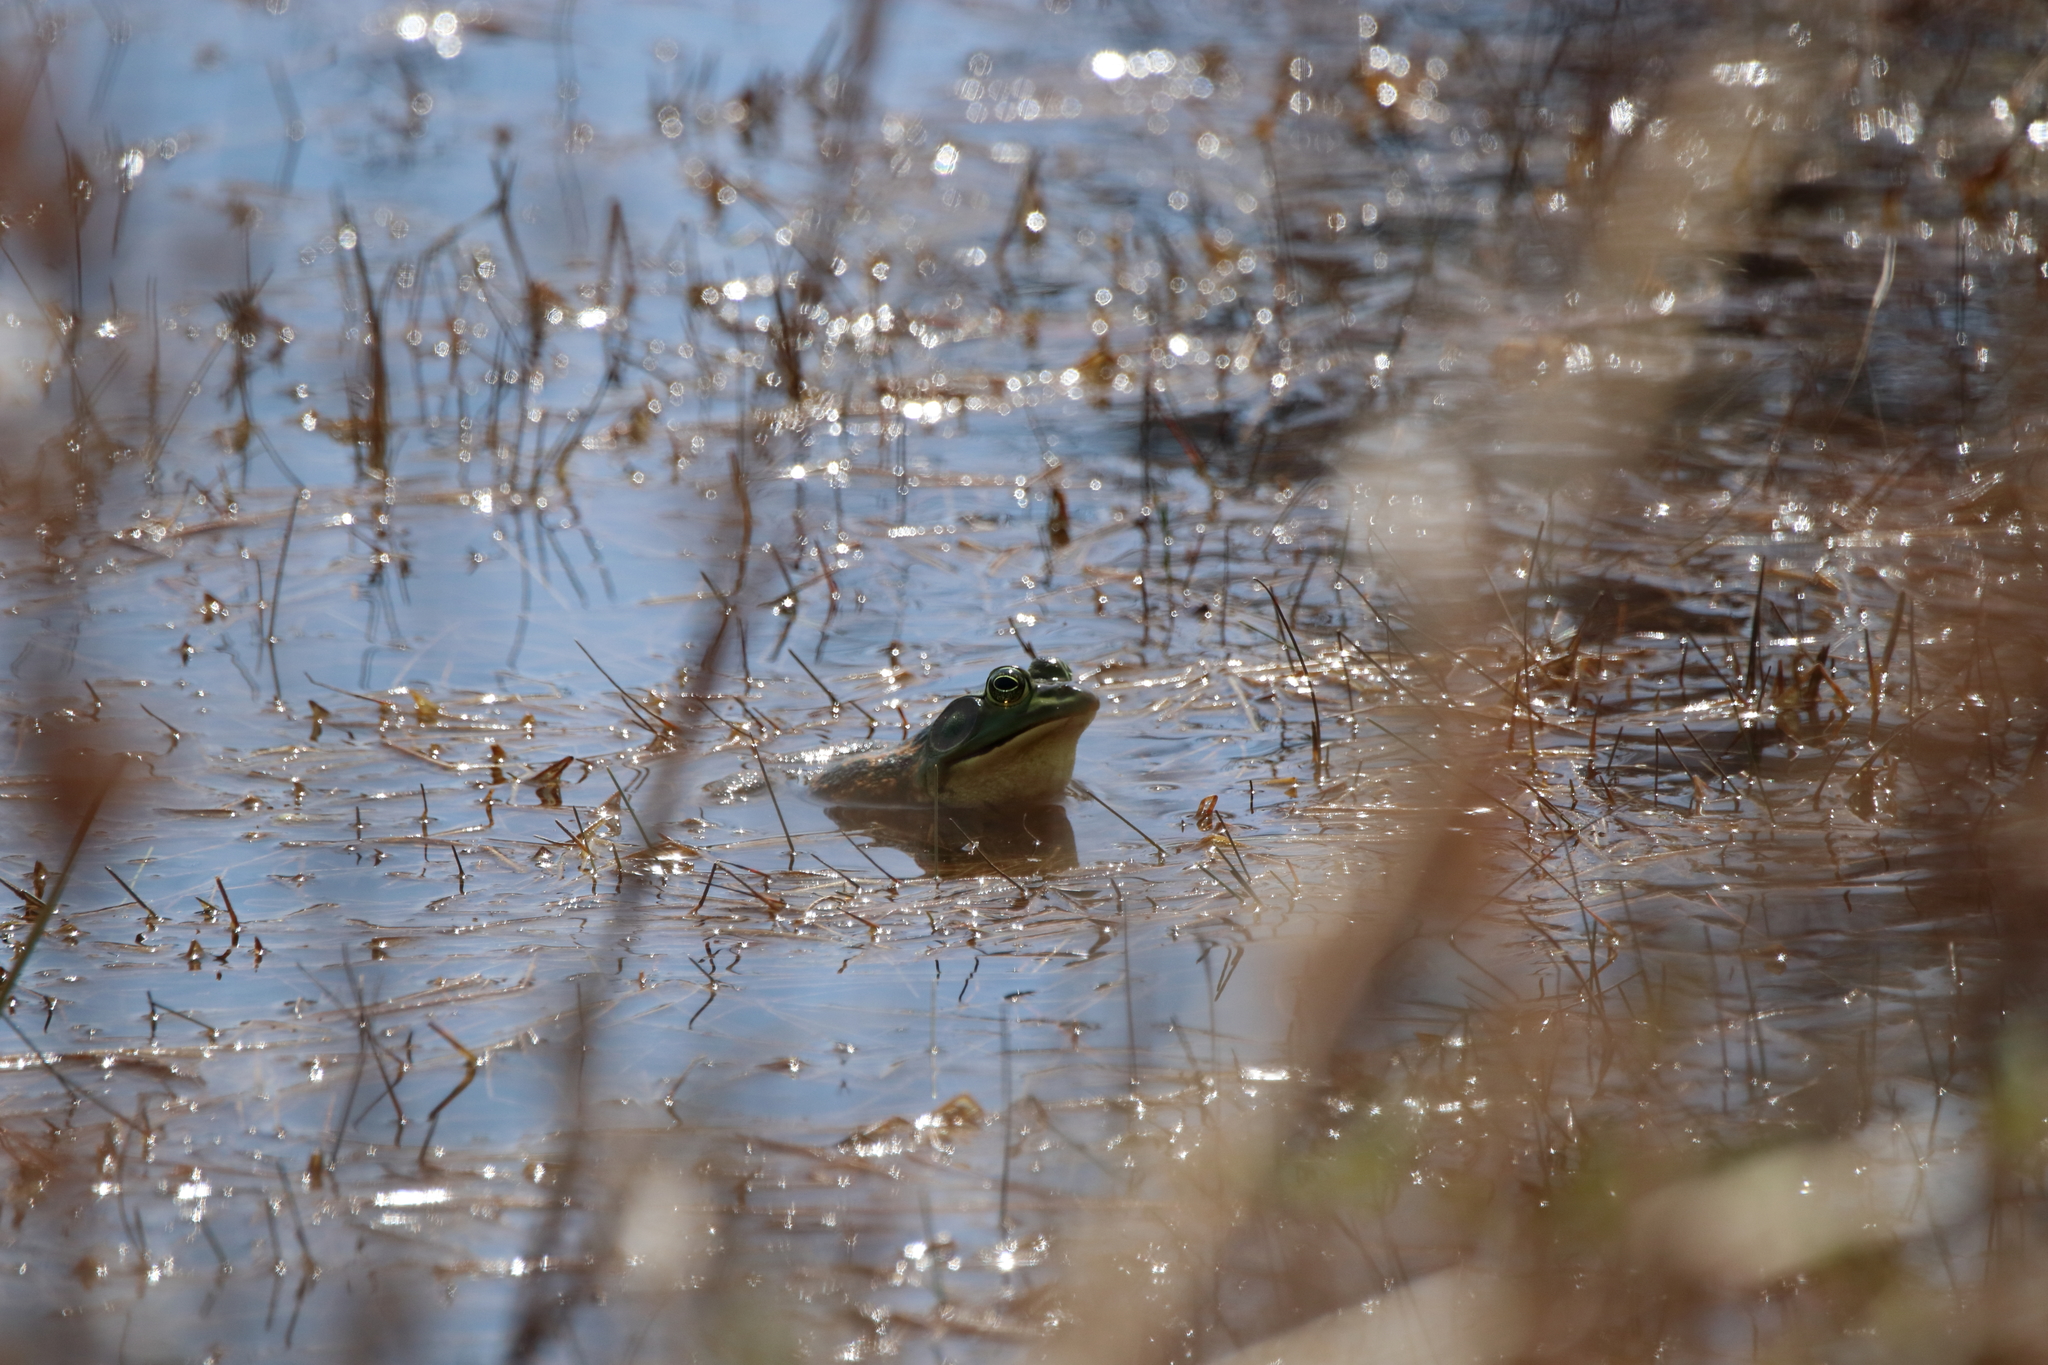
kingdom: Animalia
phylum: Chordata
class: Amphibia
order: Anura
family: Ranidae
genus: Lithobates
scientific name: Lithobates catesbeianus
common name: American bullfrog
